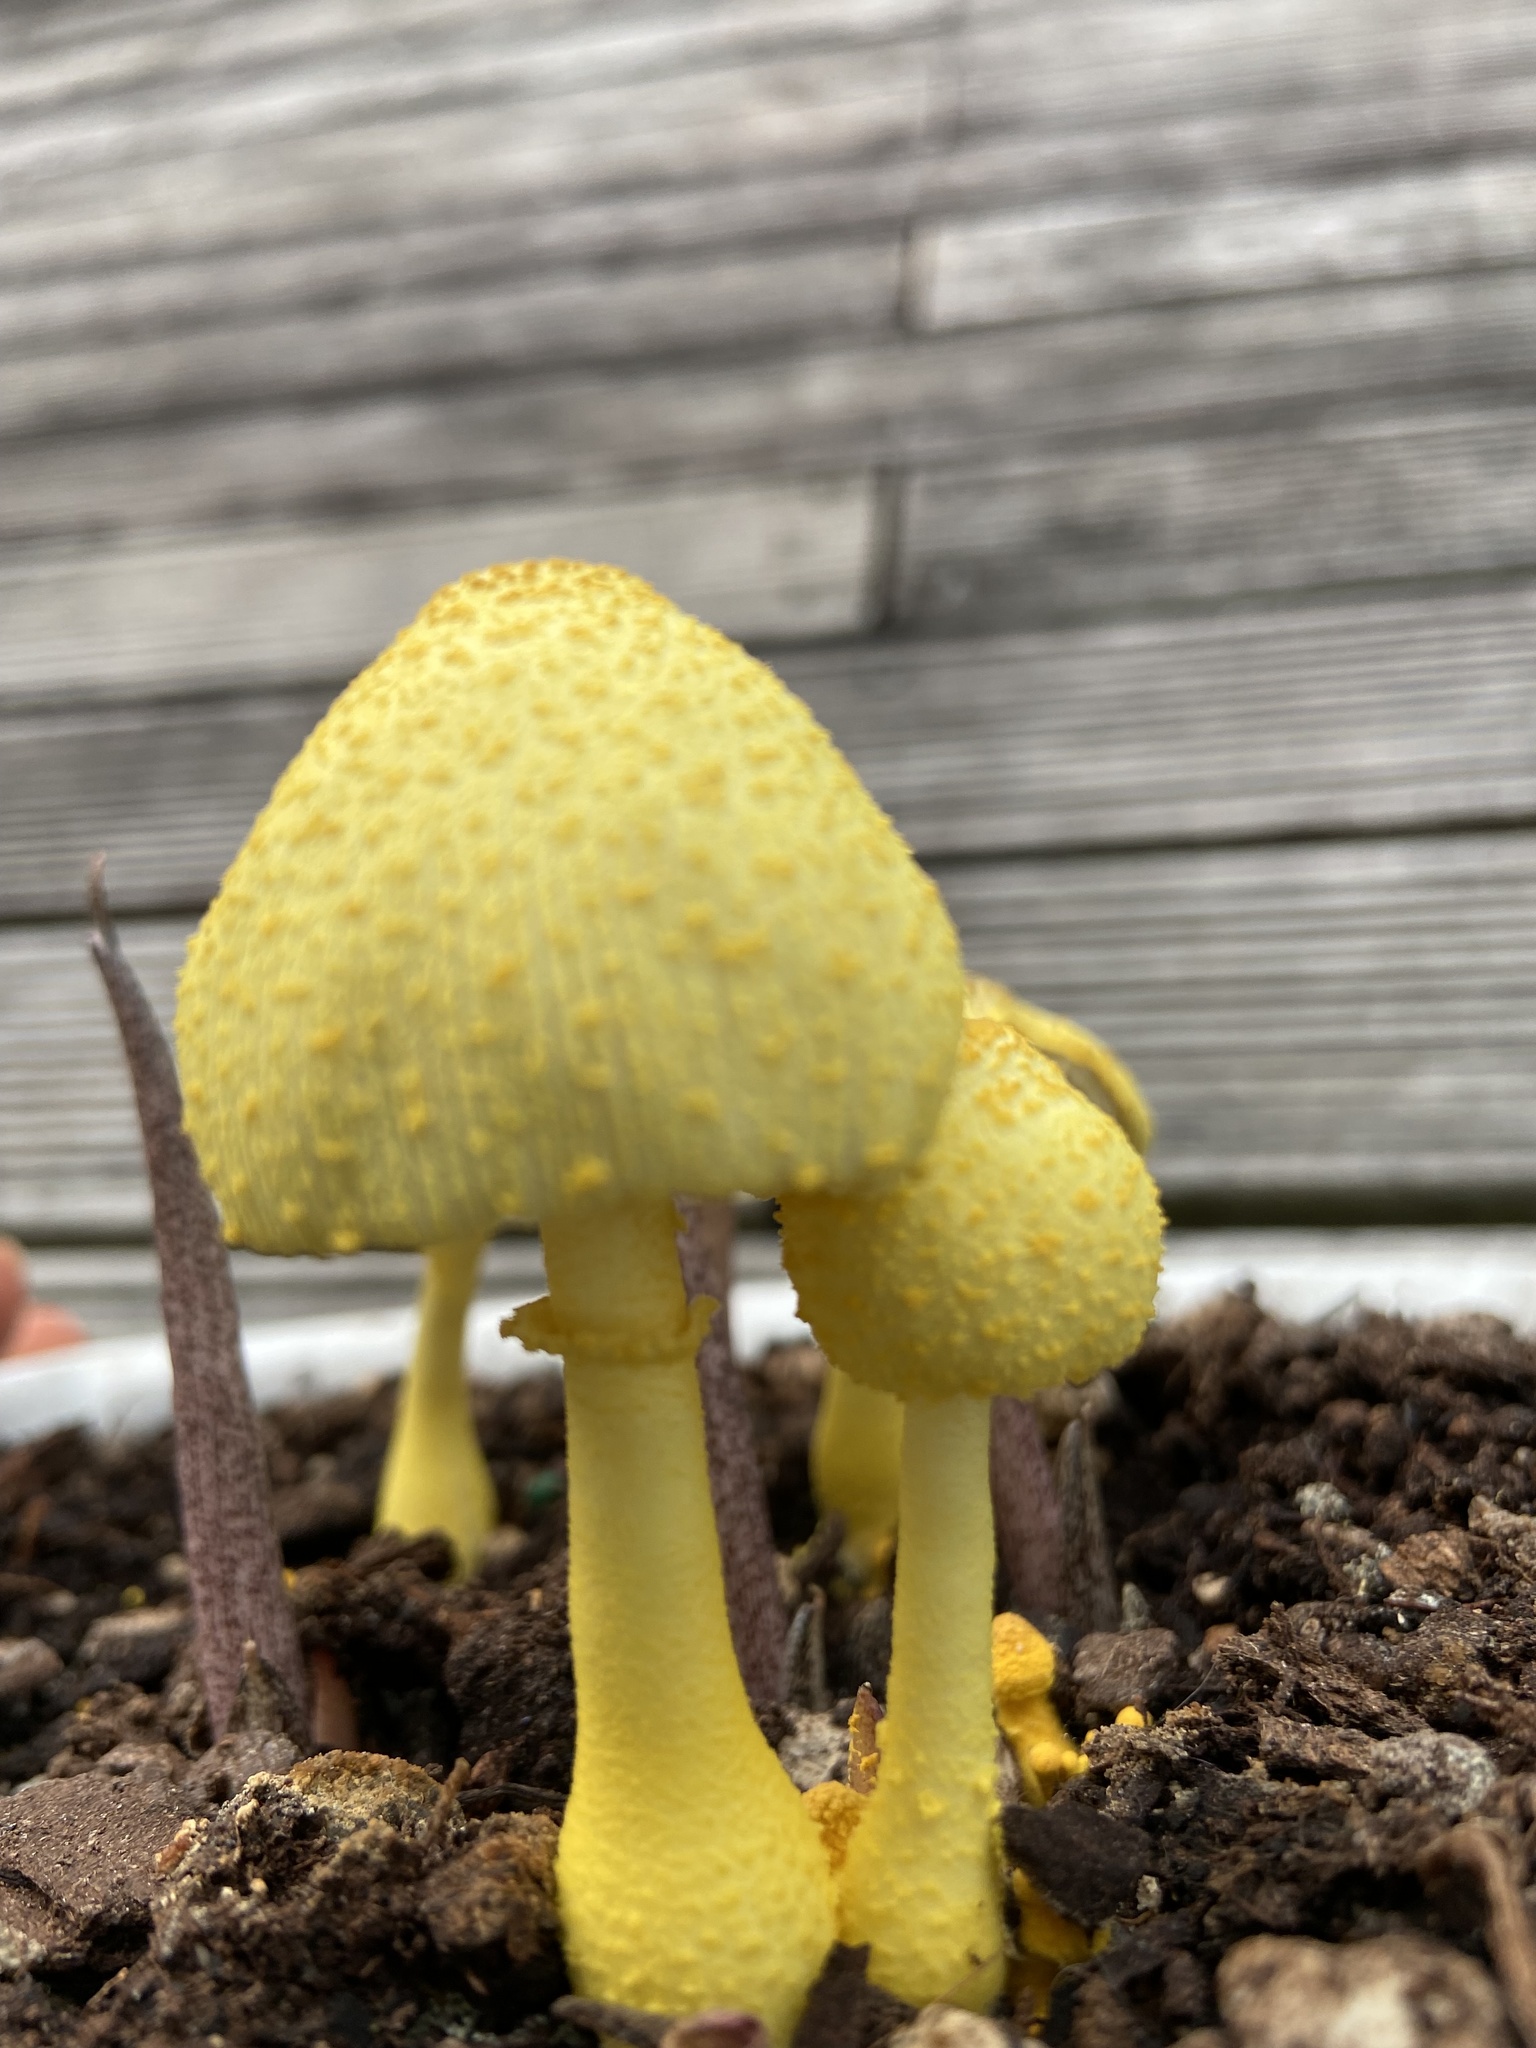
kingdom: Fungi
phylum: Basidiomycota
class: Agaricomycetes
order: Agaricales
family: Agaricaceae
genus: Leucocoprinus
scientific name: Leucocoprinus birnbaumii
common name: Plantpot dapperling
